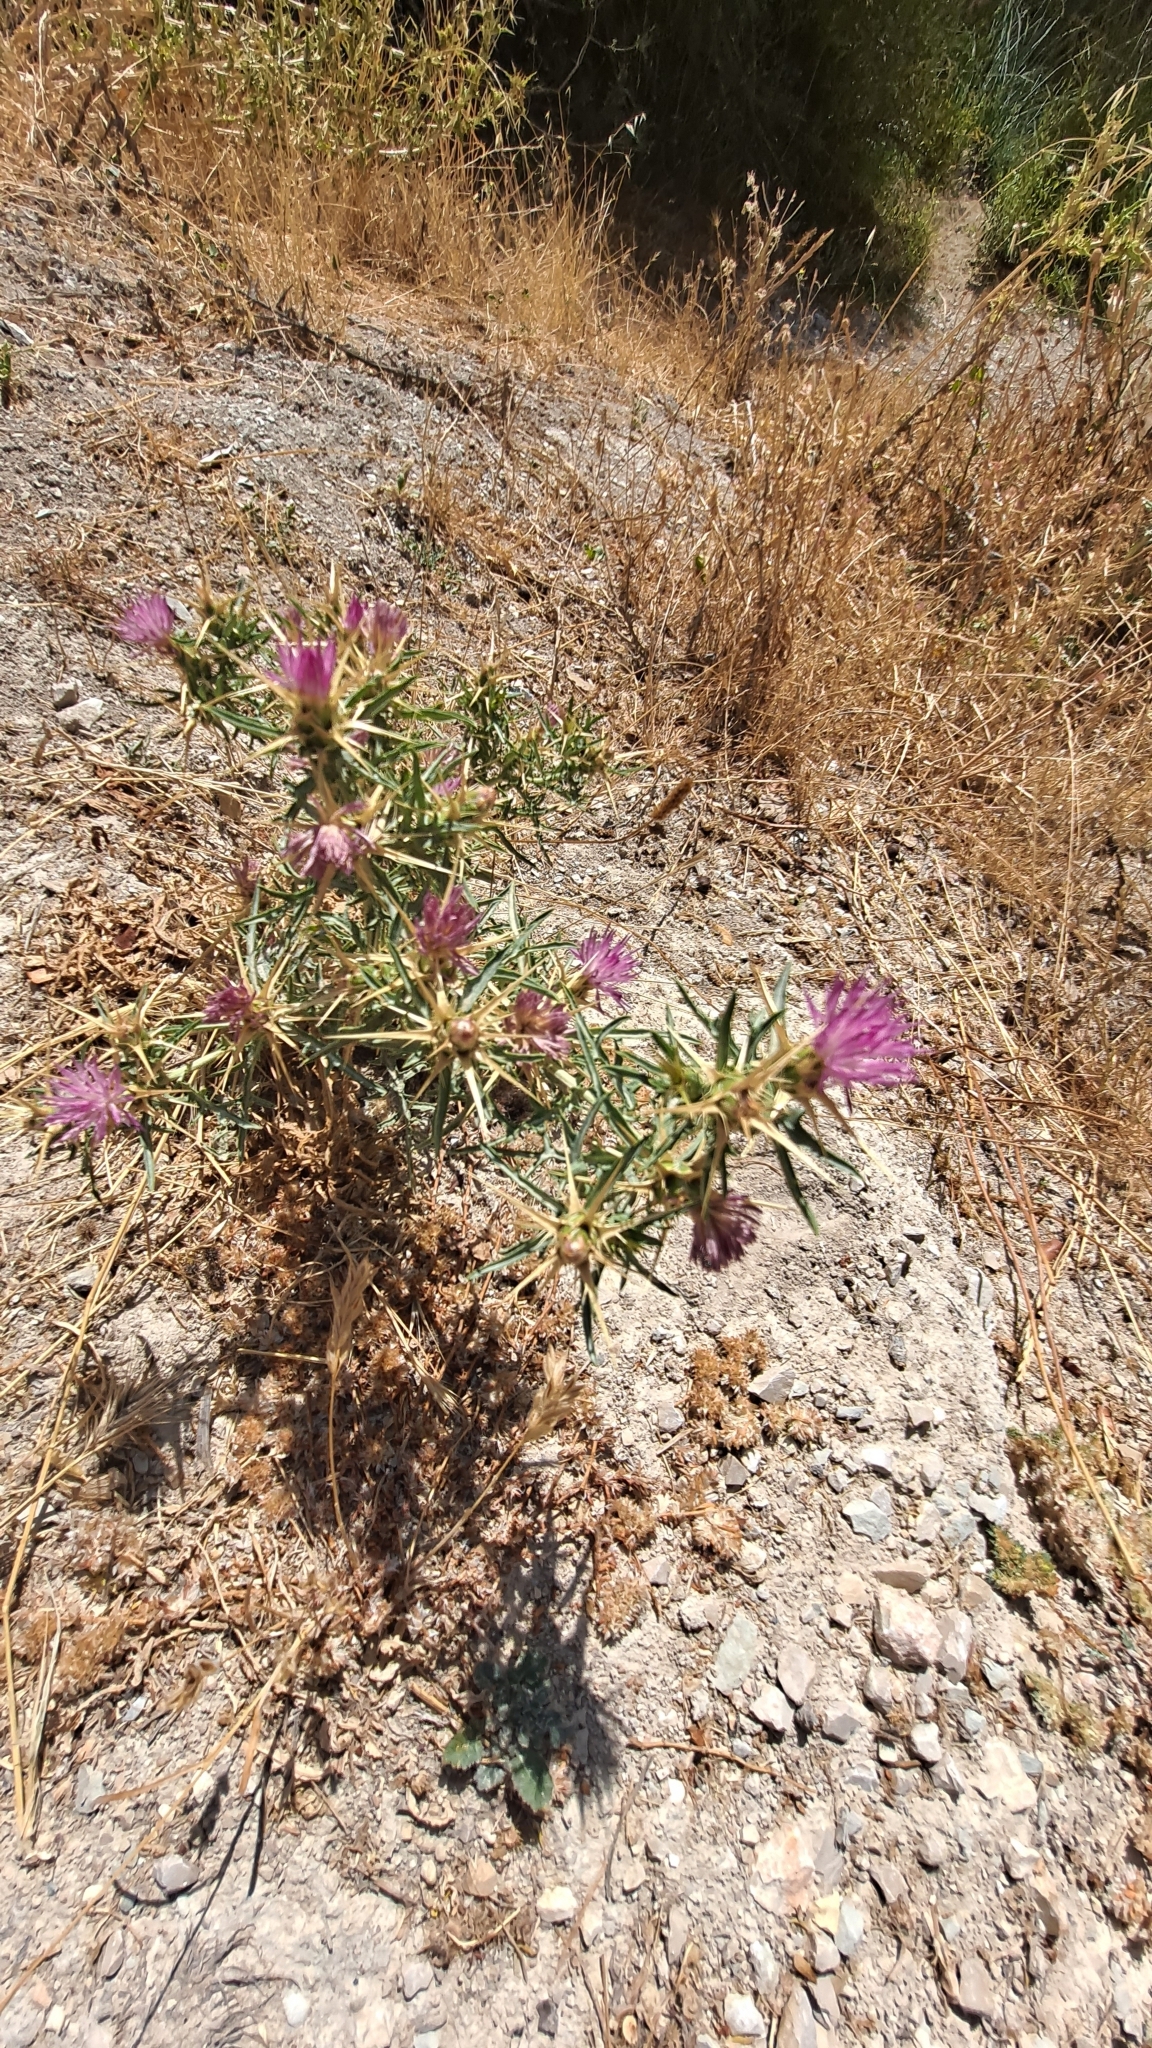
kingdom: Plantae
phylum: Tracheophyta
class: Magnoliopsida
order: Asterales
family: Asteraceae
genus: Centaurea
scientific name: Centaurea calcitrapa
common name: Red star-thistle
